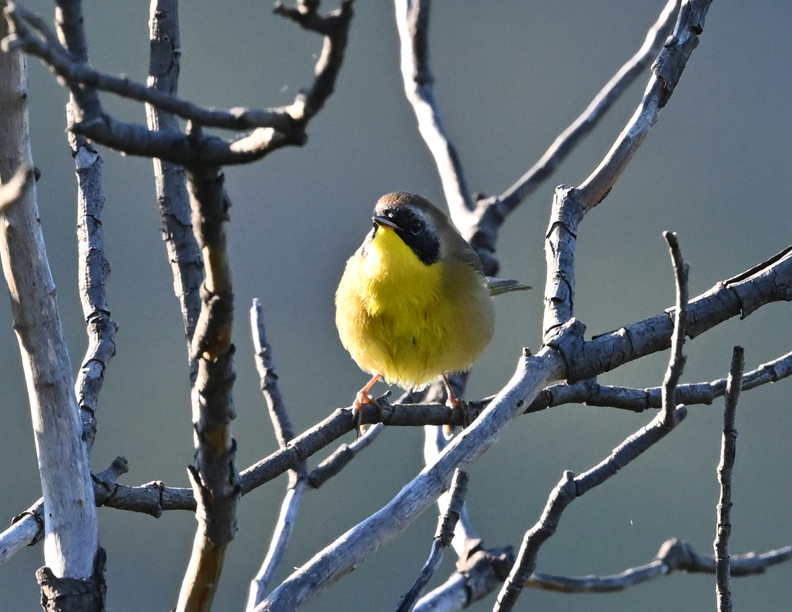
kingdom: Animalia
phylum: Chordata
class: Aves
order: Passeriformes
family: Parulidae
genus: Geothlypis
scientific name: Geothlypis trichas
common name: Common yellowthroat
